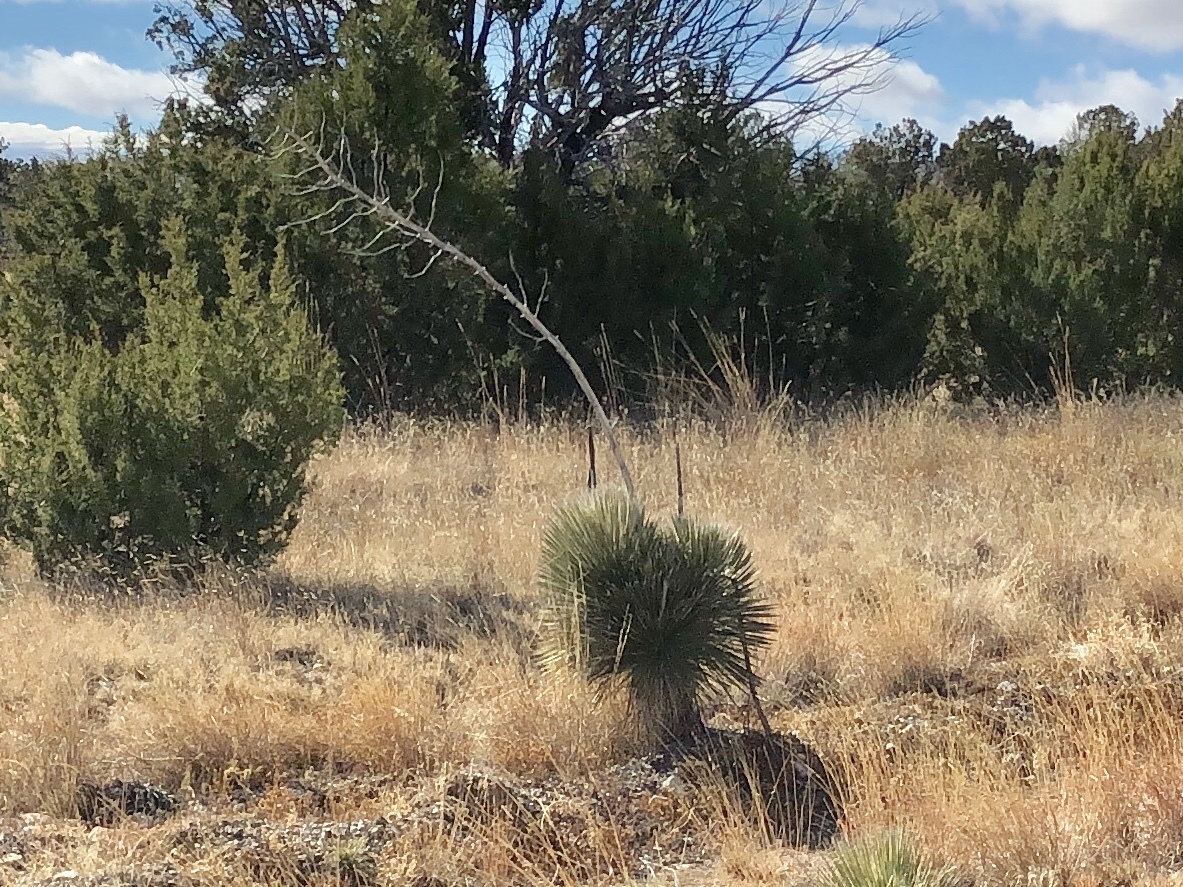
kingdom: Plantae
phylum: Tracheophyta
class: Liliopsida
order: Asparagales
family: Asparagaceae
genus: Yucca
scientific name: Yucca elata
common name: Palmella
